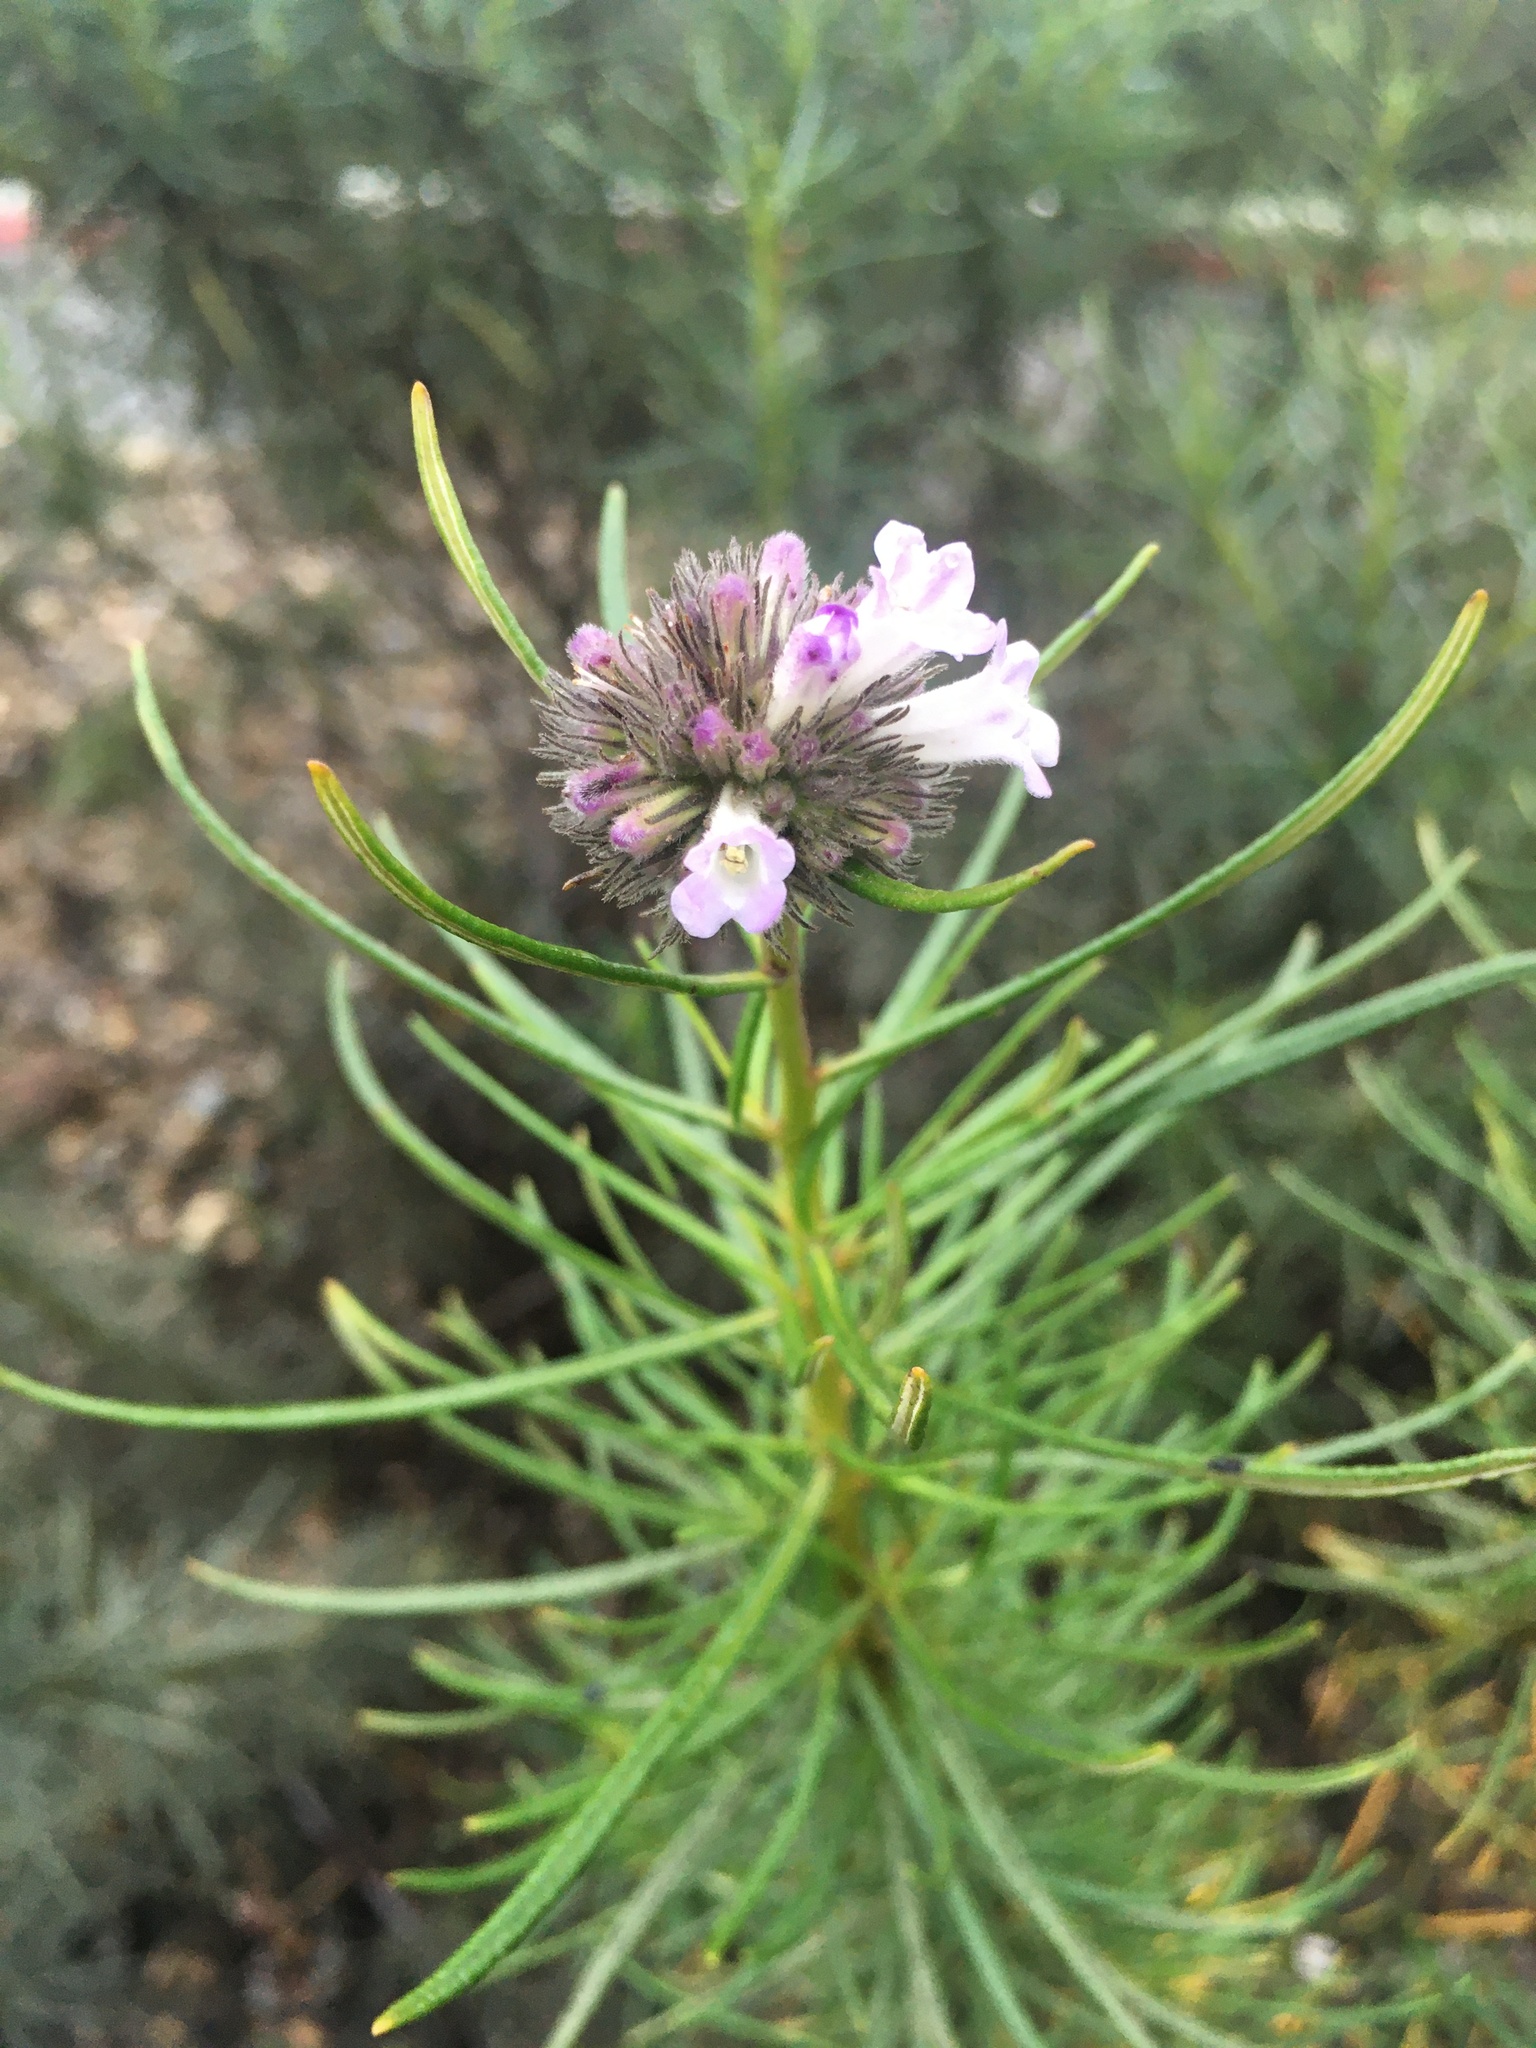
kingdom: Plantae
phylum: Tracheophyta
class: Magnoliopsida
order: Boraginales
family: Namaceae
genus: Eriodictyon
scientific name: Eriodictyon capitatum
